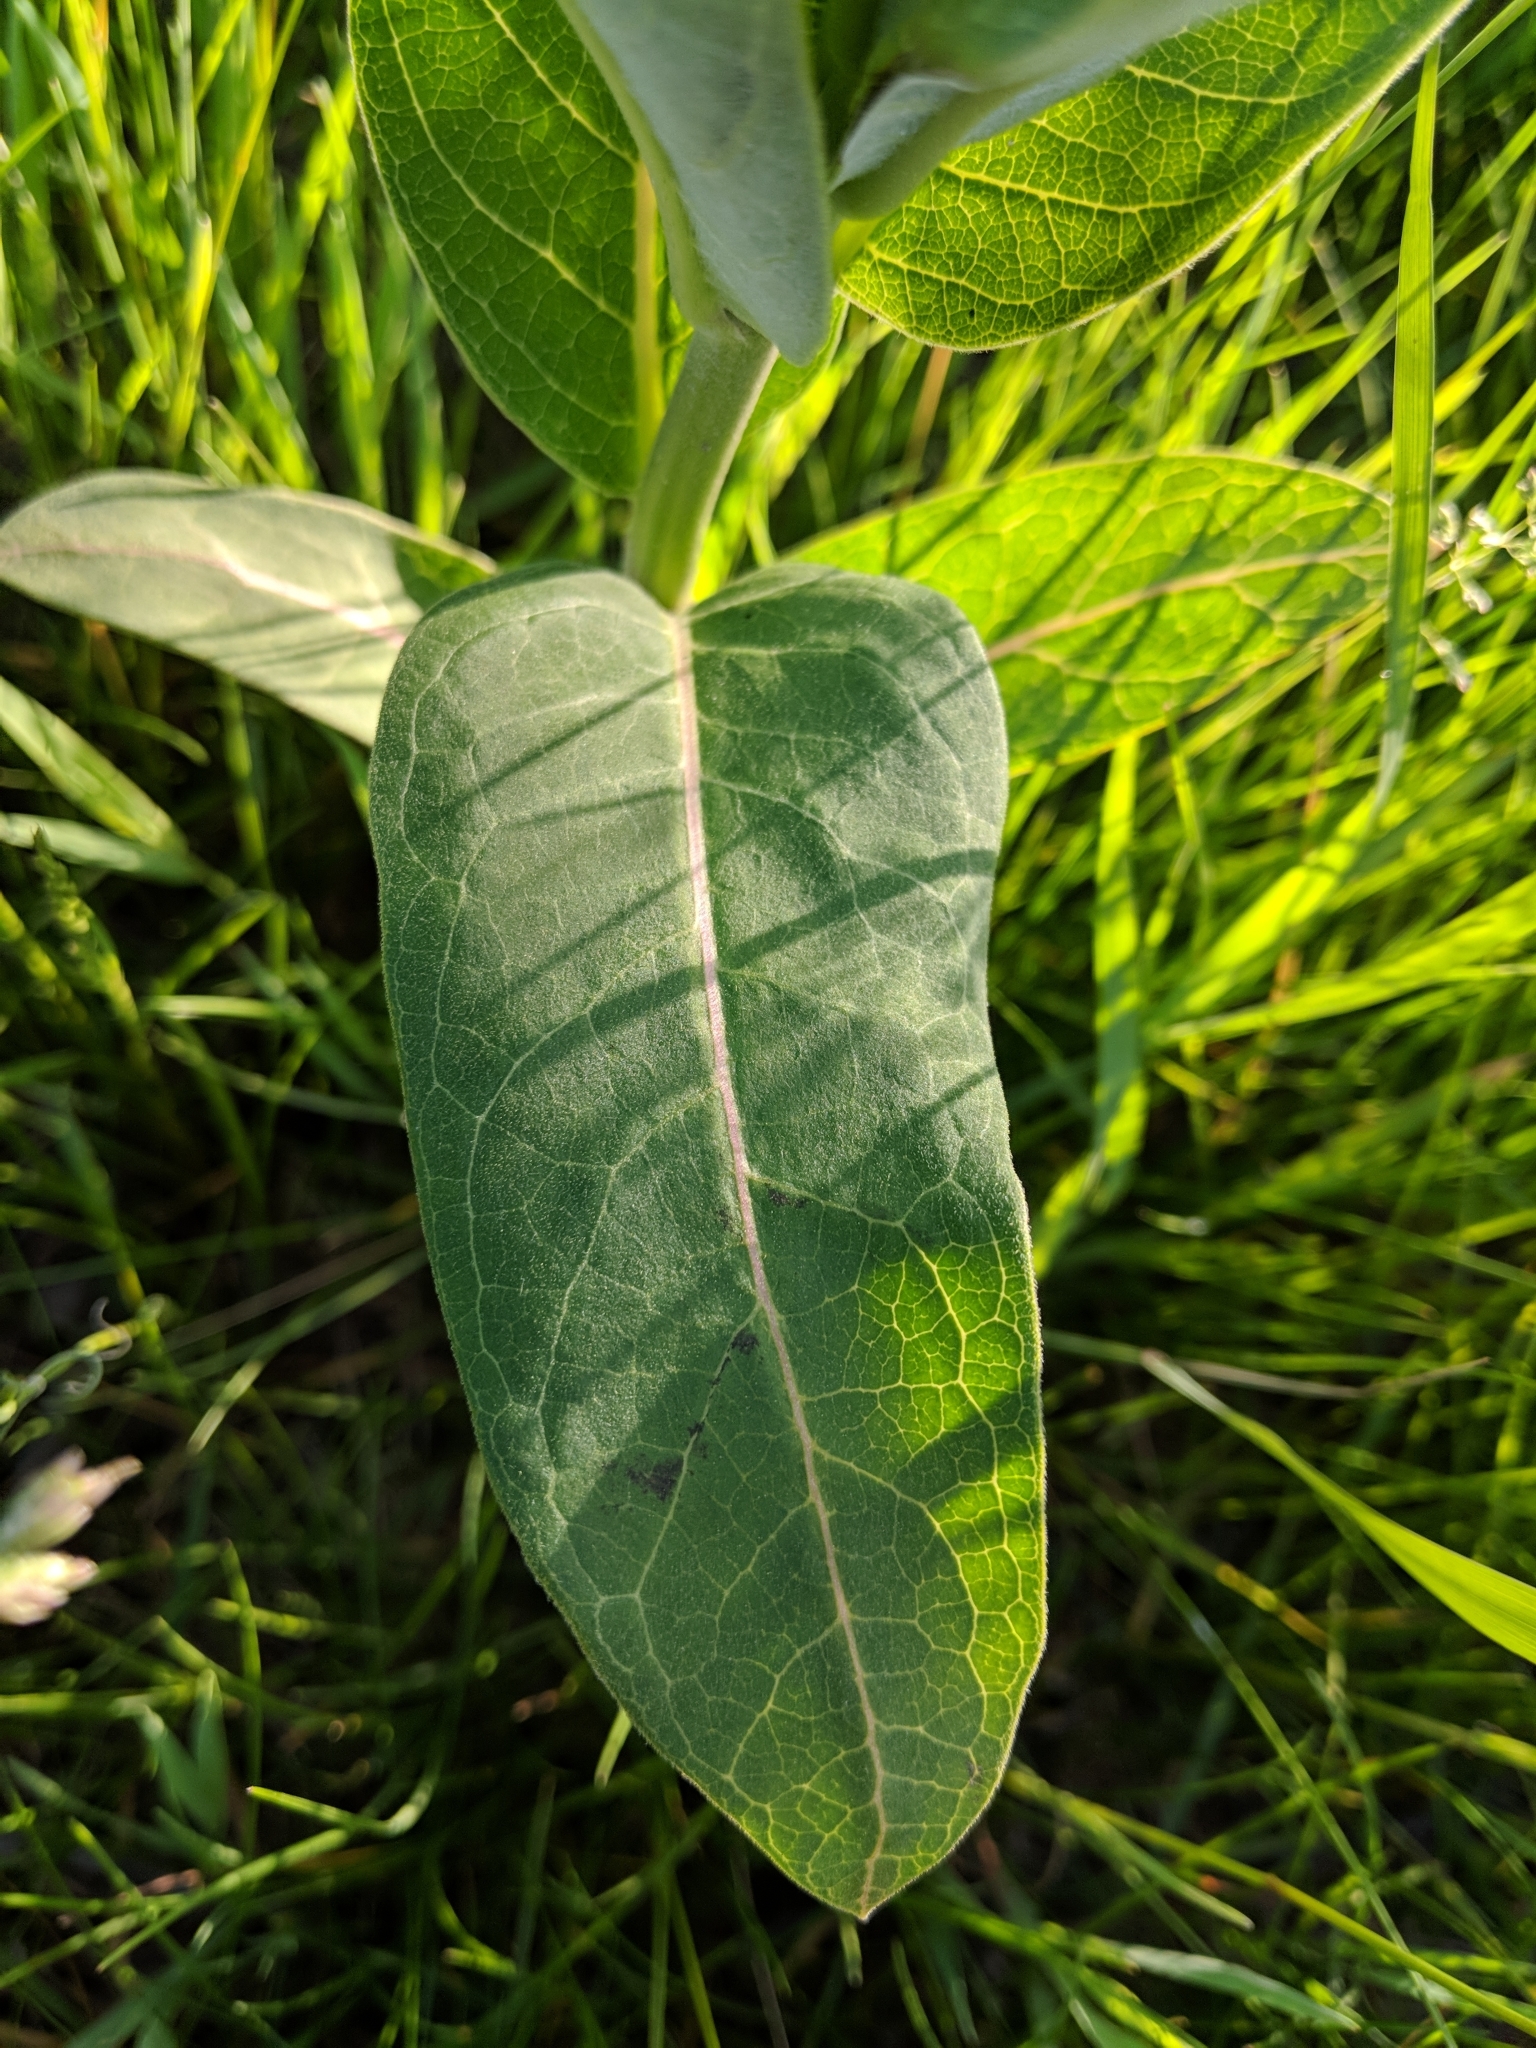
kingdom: Plantae
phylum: Tracheophyta
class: Magnoliopsida
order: Gentianales
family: Apocynaceae
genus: Asclepias
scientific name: Asclepias syriaca
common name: Common milkweed
